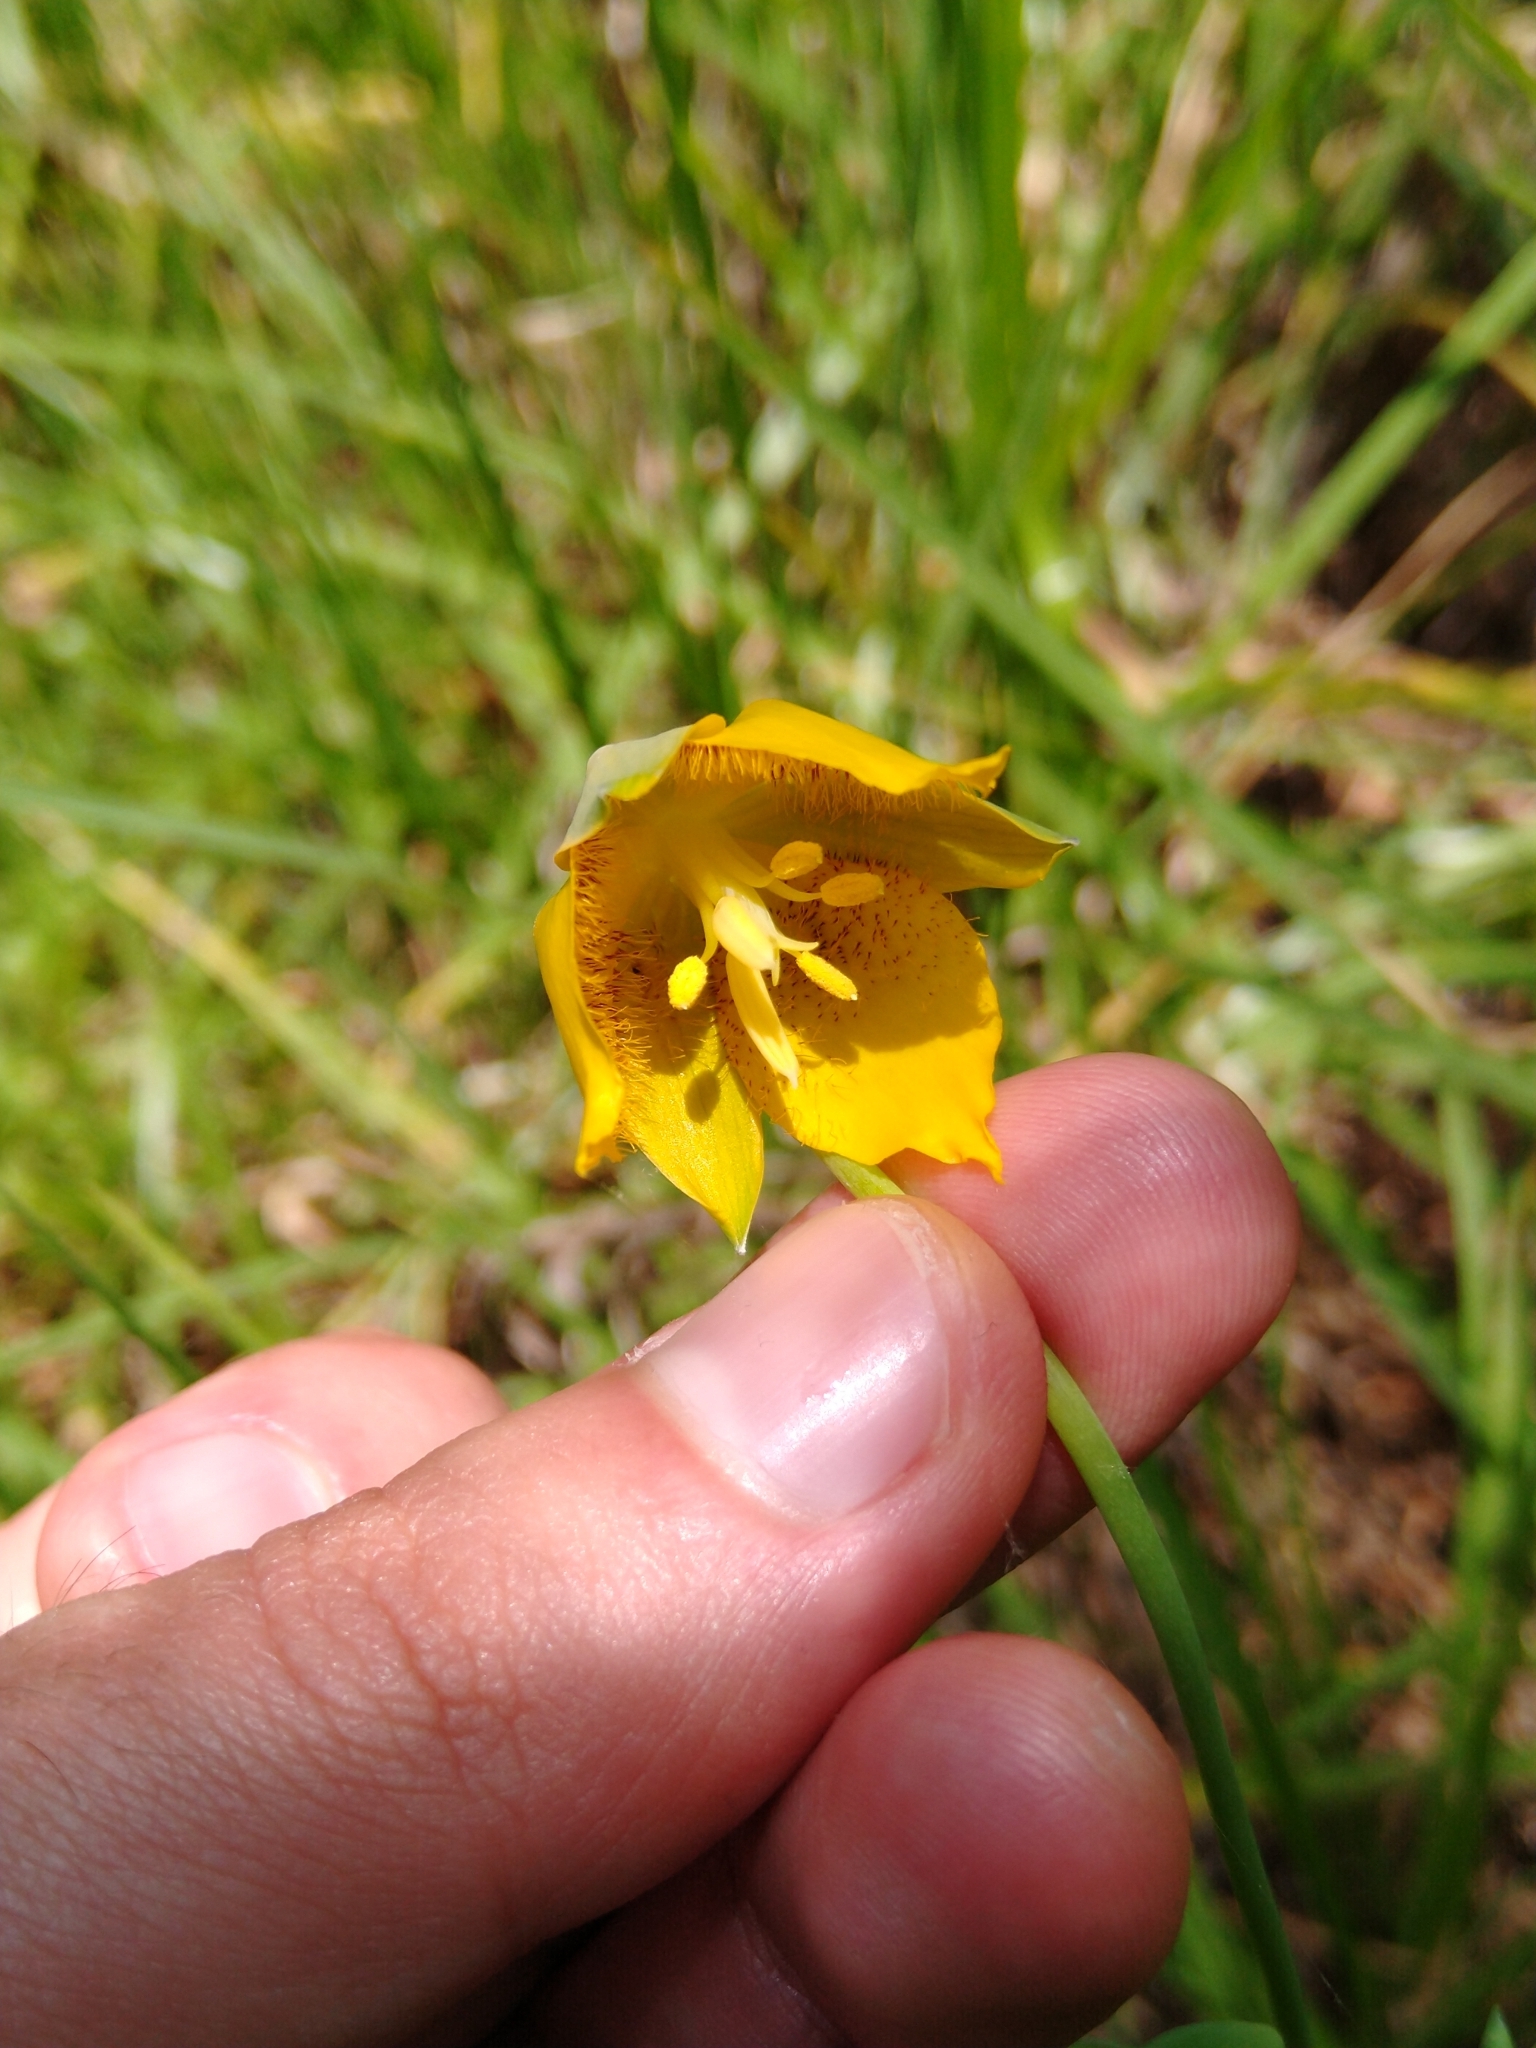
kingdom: Plantae
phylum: Tracheophyta
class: Liliopsida
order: Liliales
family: Liliaceae
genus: Calochortus
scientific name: Calochortus barbatus
